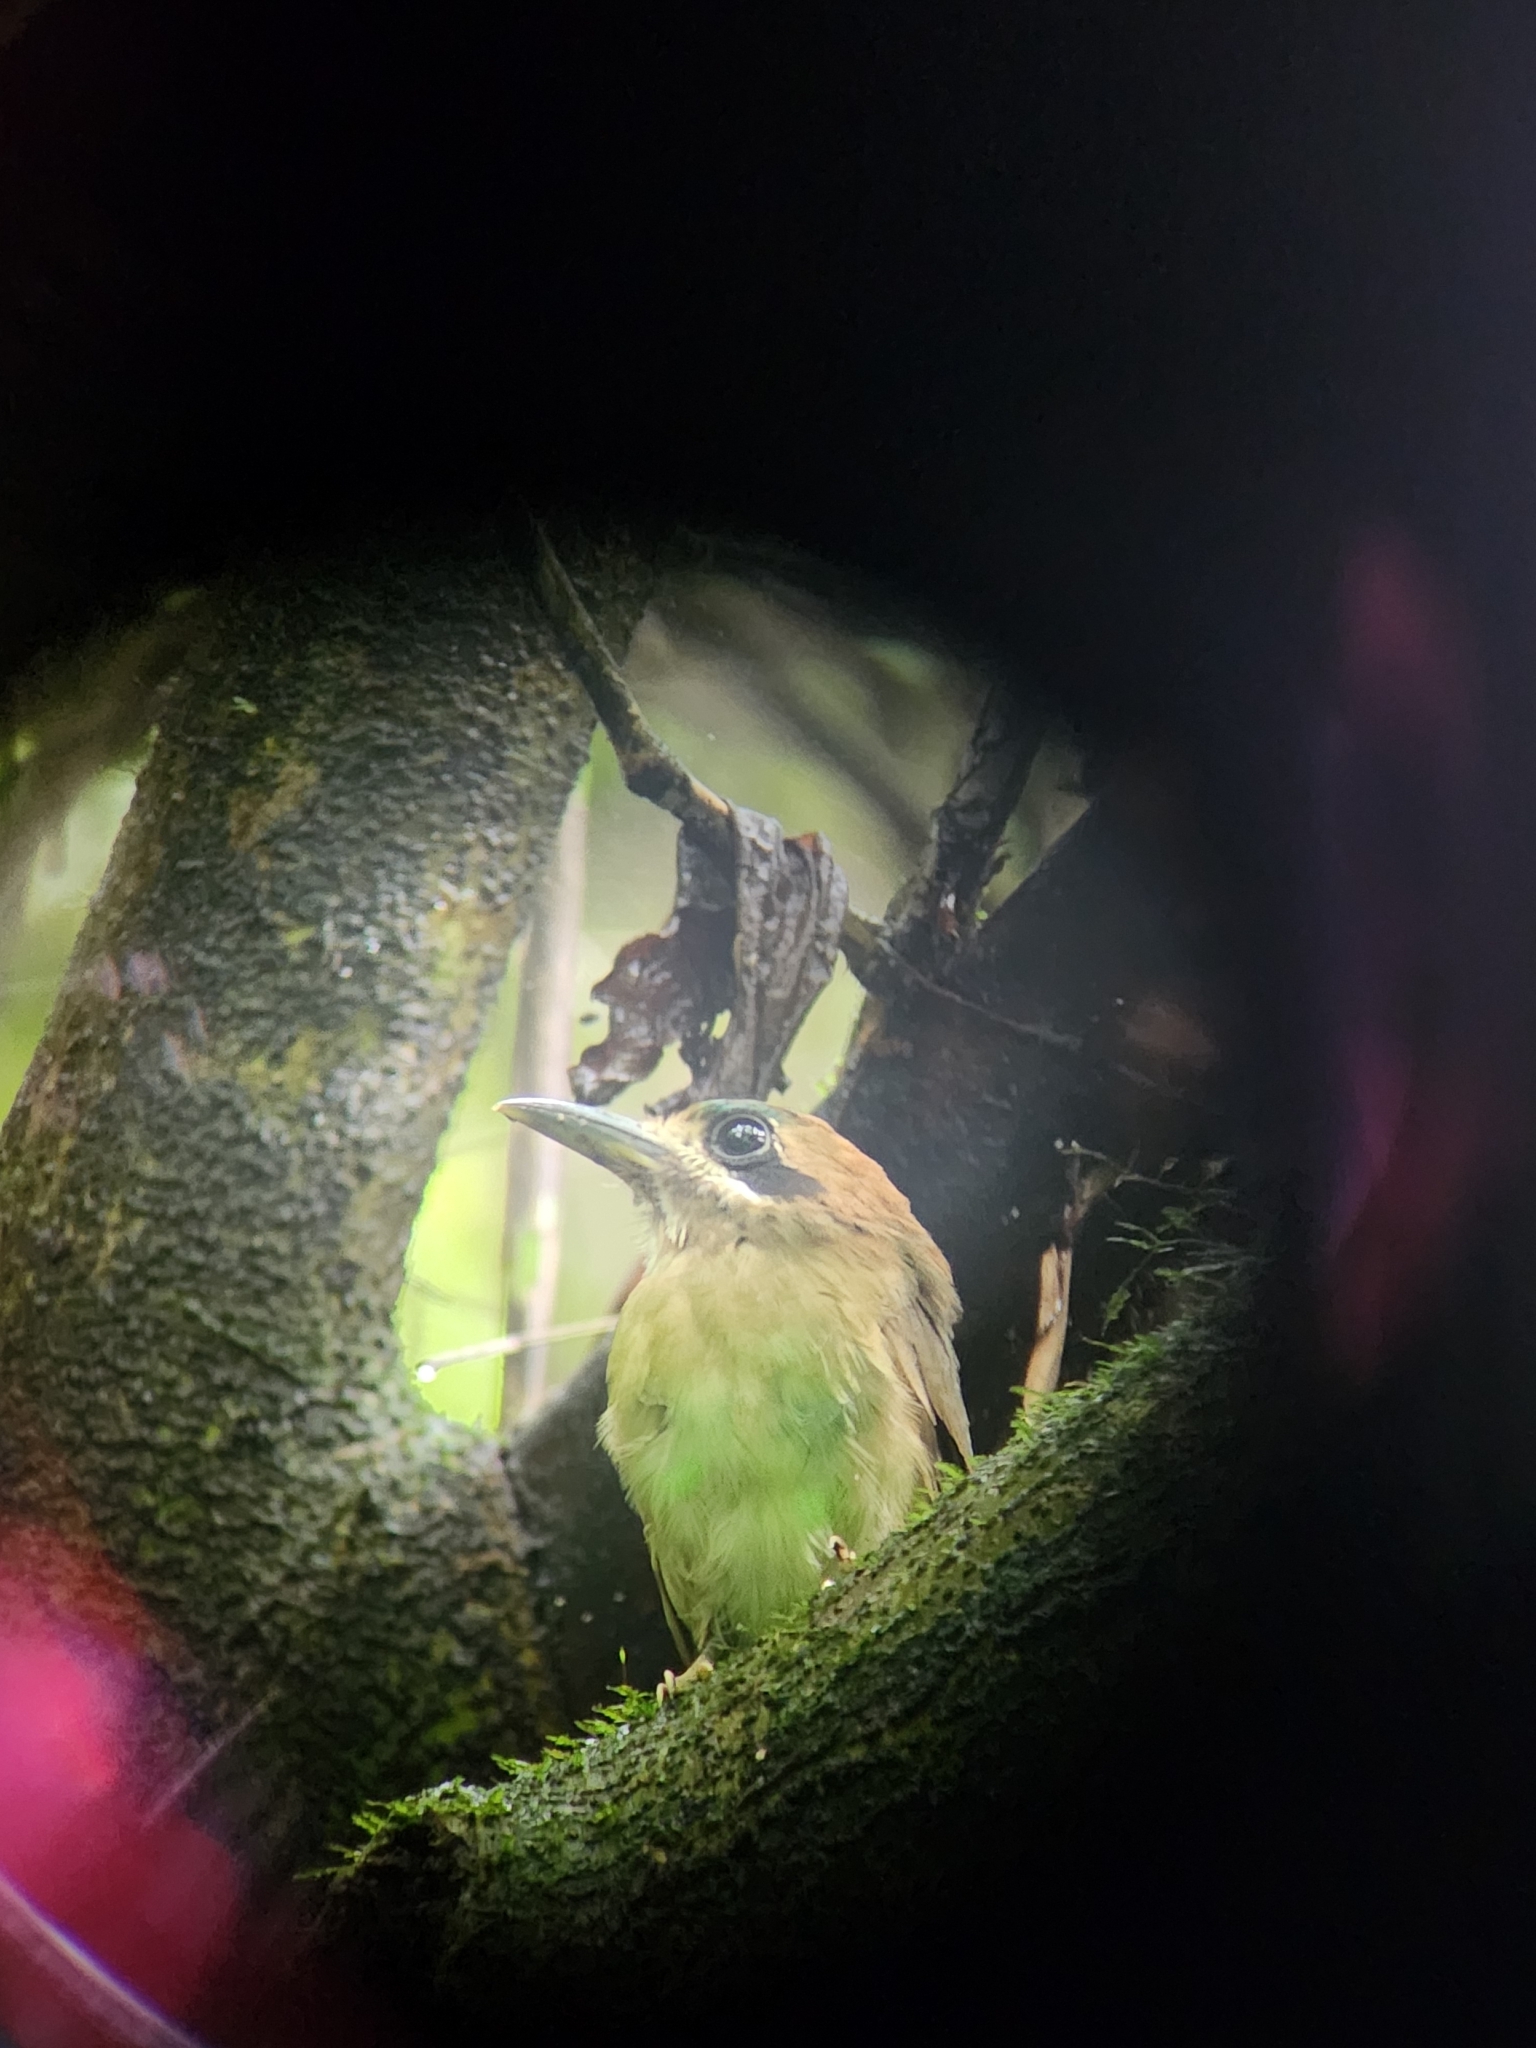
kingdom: Animalia
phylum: Chordata
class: Aves
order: Coraciiformes
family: Momotidae
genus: Hylomanes
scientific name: Hylomanes momotula
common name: Tody motmot
